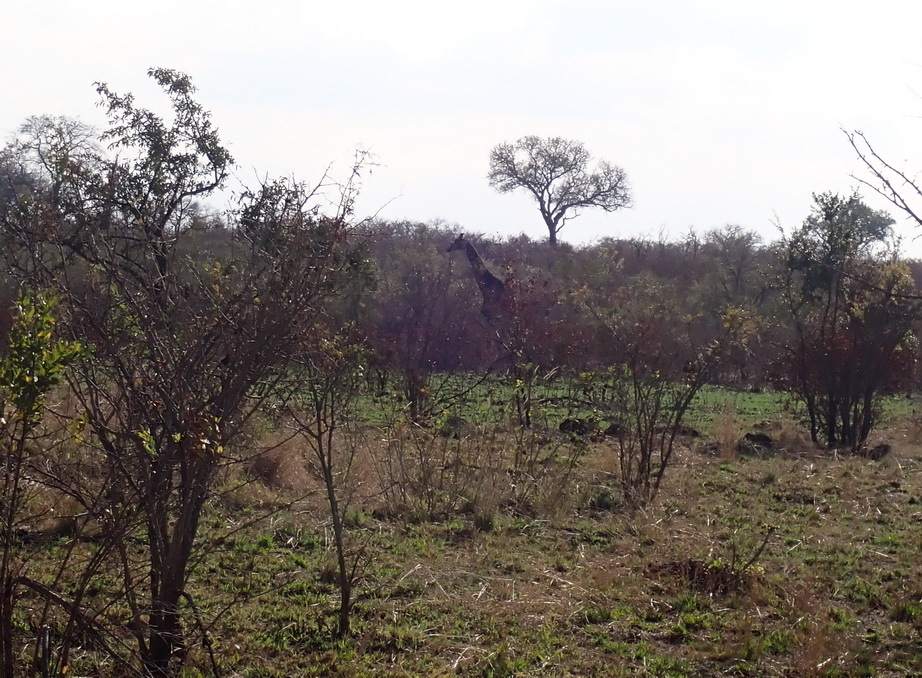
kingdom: Animalia
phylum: Chordata
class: Mammalia
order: Artiodactyla
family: Giraffidae
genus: Giraffa
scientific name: Giraffa giraffa
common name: Southern giraffe
